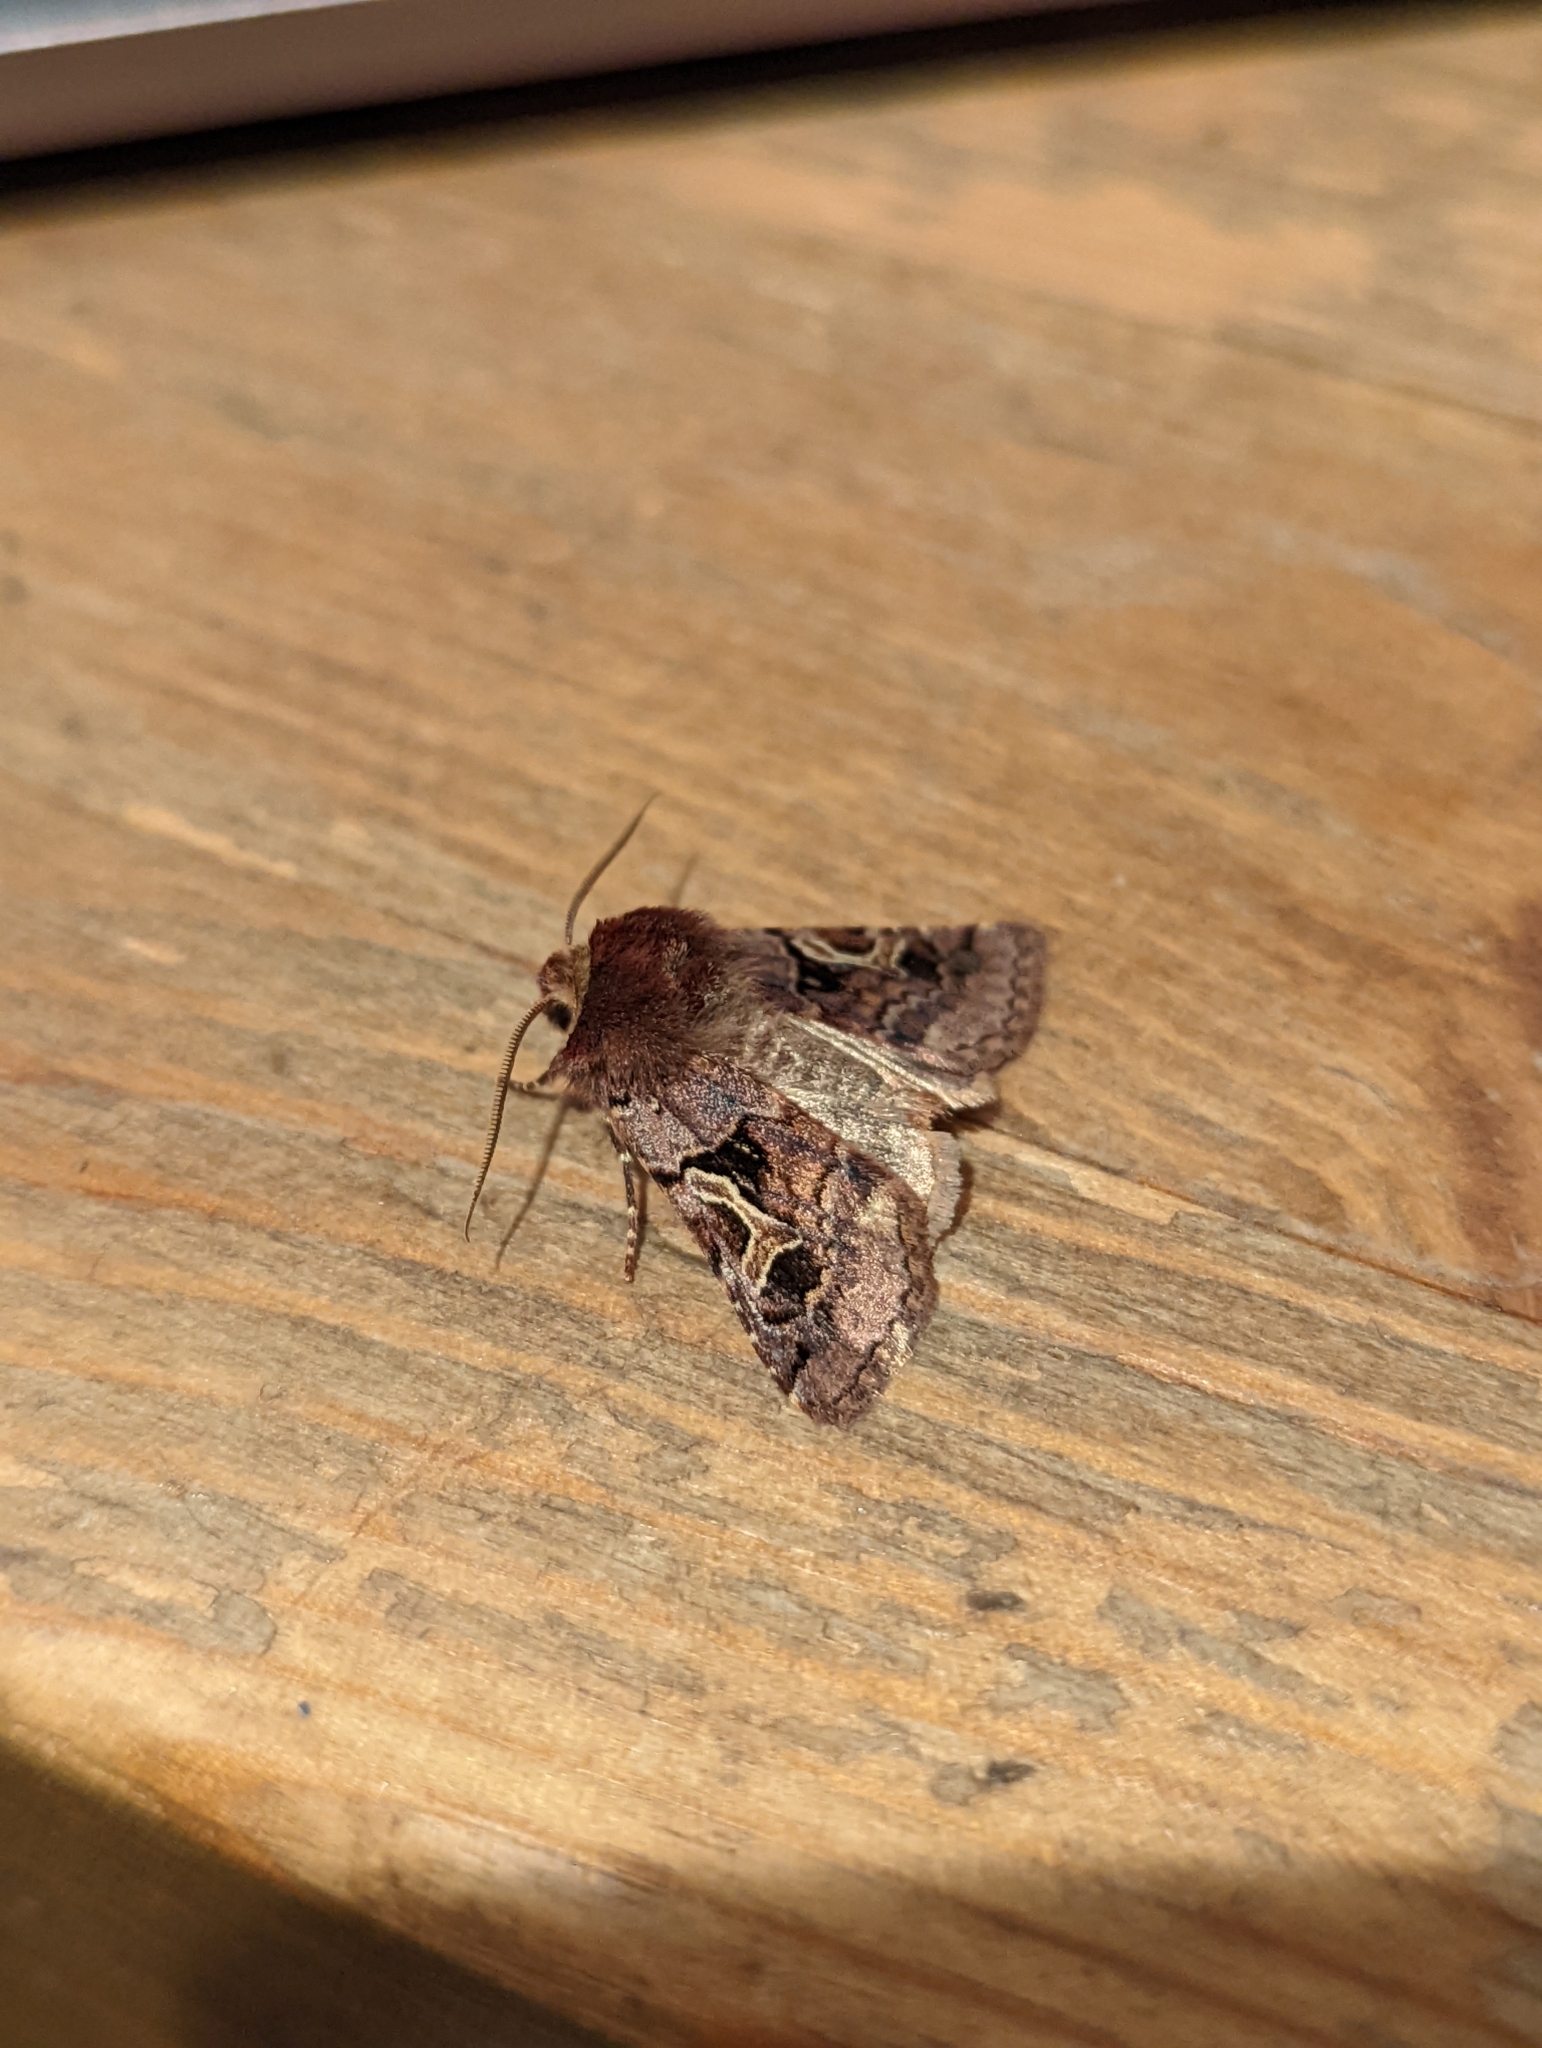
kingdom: Animalia
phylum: Arthropoda
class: Insecta
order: Lepidoptera
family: Noctuidae
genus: Cerastis
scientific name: Cerastis enigmatica
